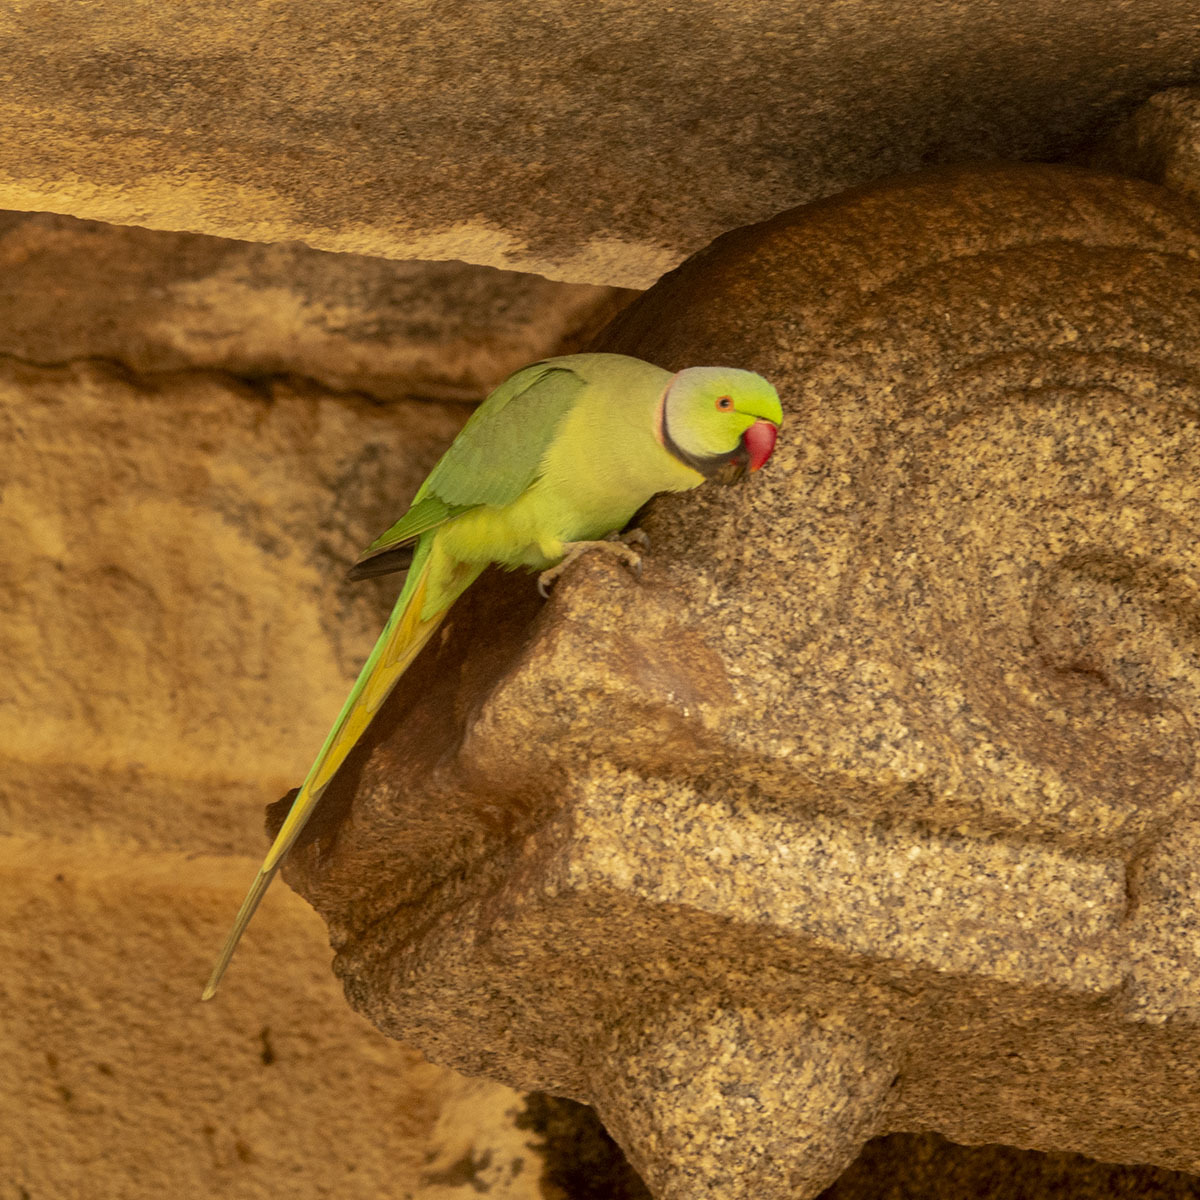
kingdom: Animalia
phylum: Chordata
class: Aves
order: Psittaciformes
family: Psittacidae
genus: Psittacula
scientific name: Psittacula krameri
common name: Rose-ringed parakeet
